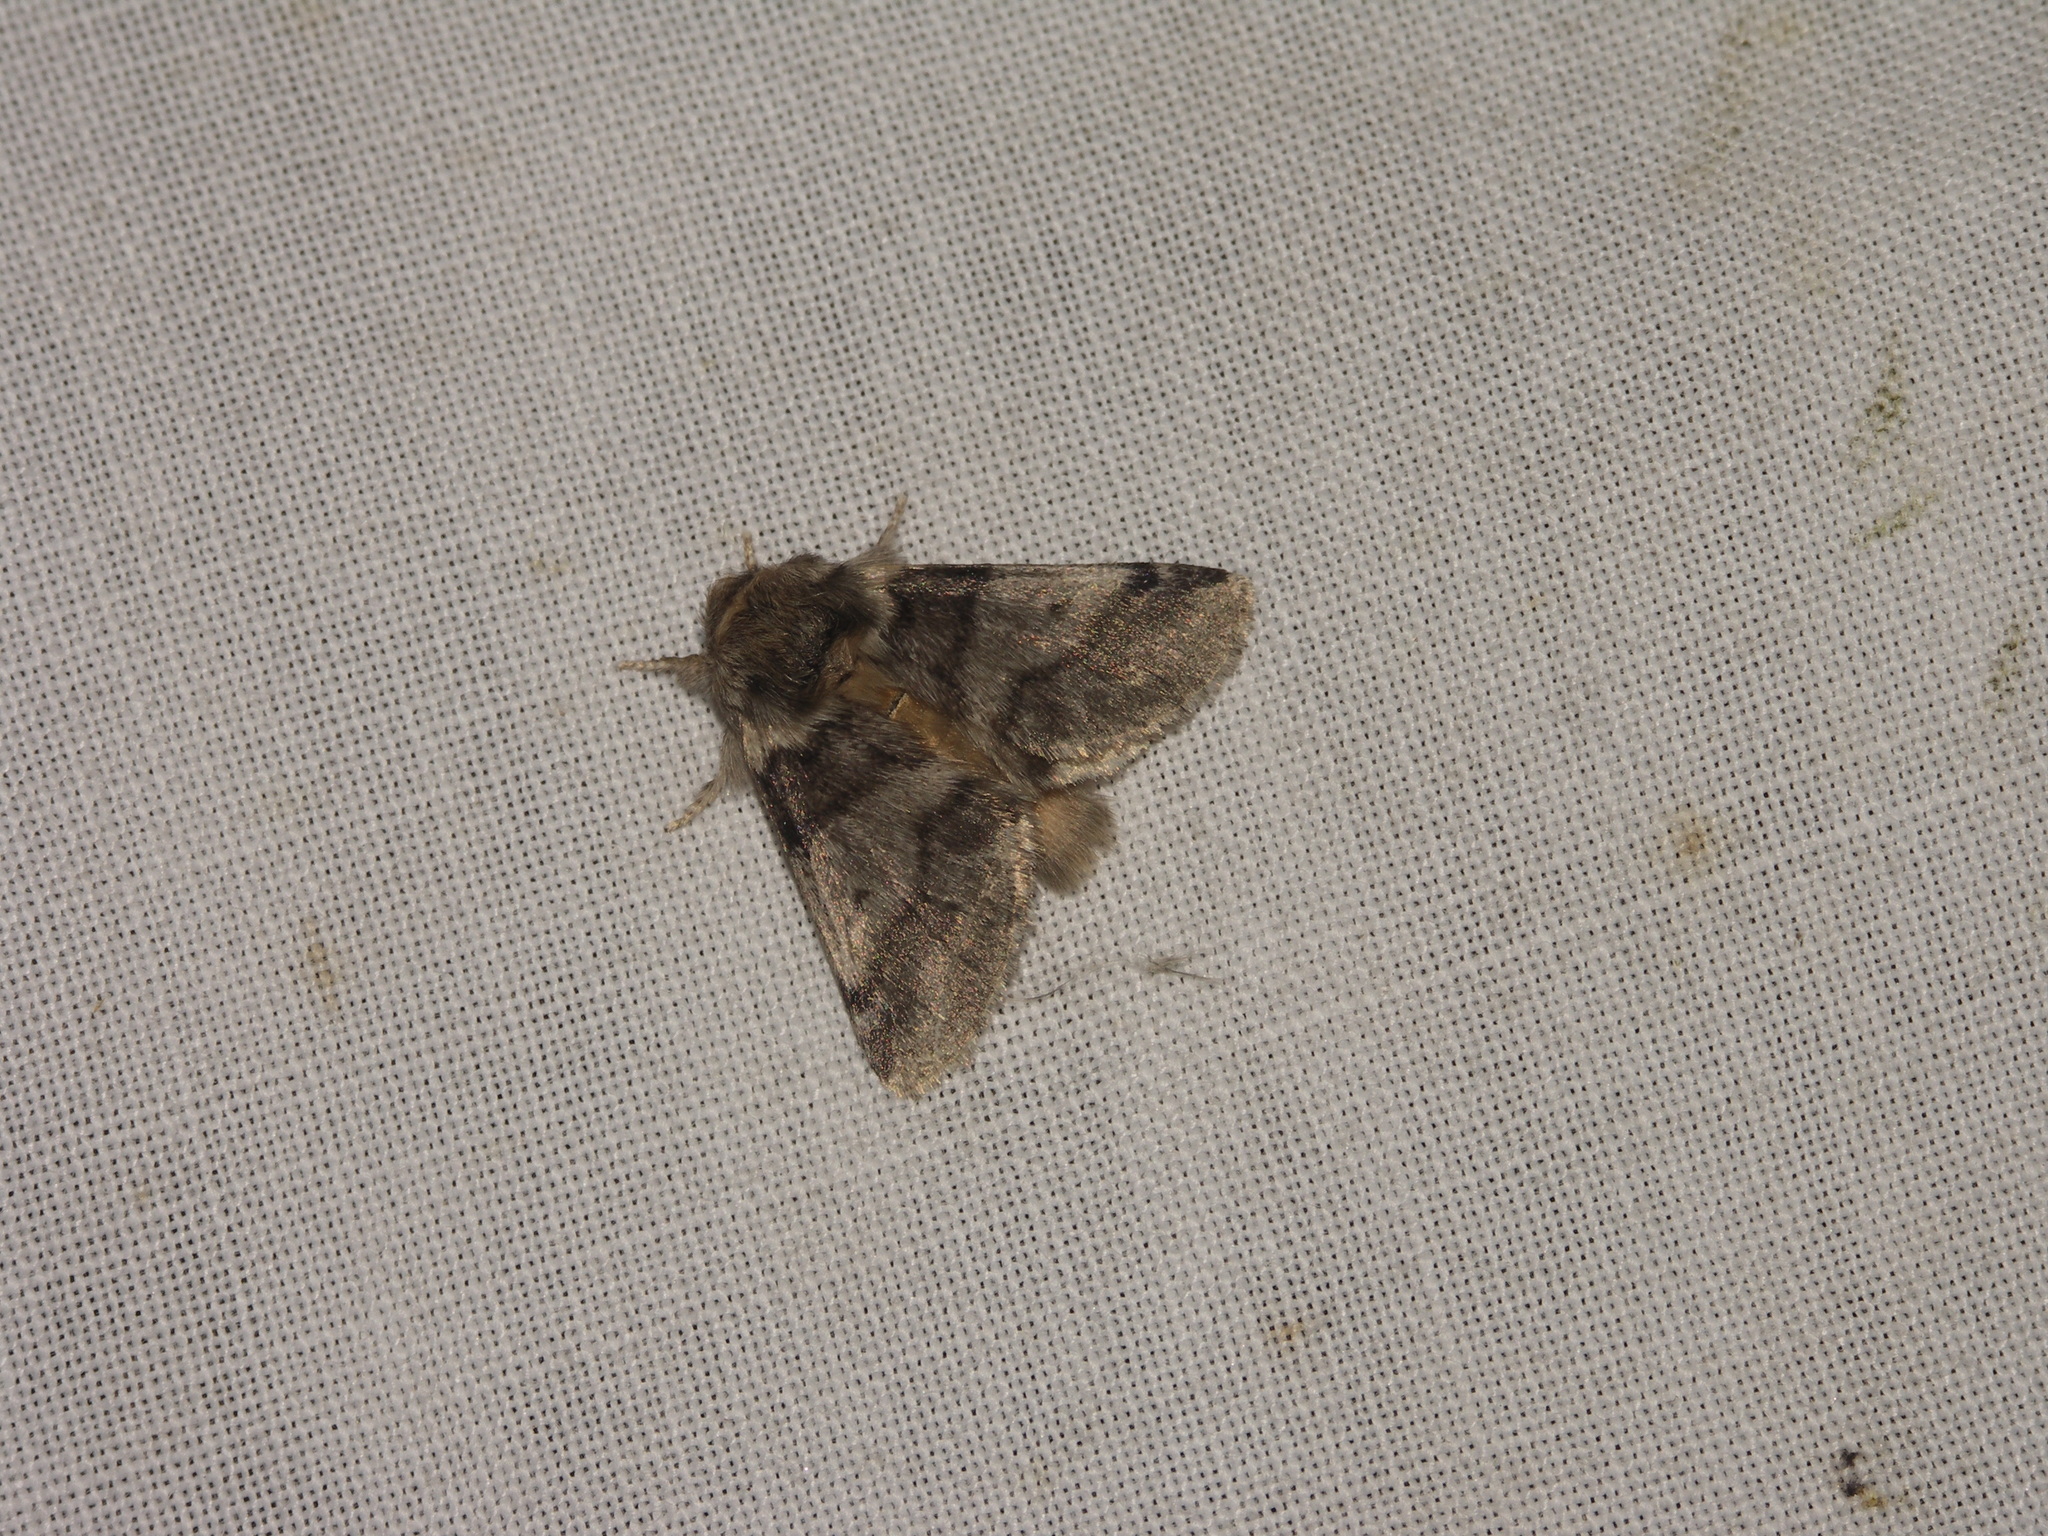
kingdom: Animalia
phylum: Arthropoda
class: Insecta
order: Lepidoptera
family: Notodontidae
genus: Thaumetopoea
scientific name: Thaumetopoea processionea
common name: Oak processionea
